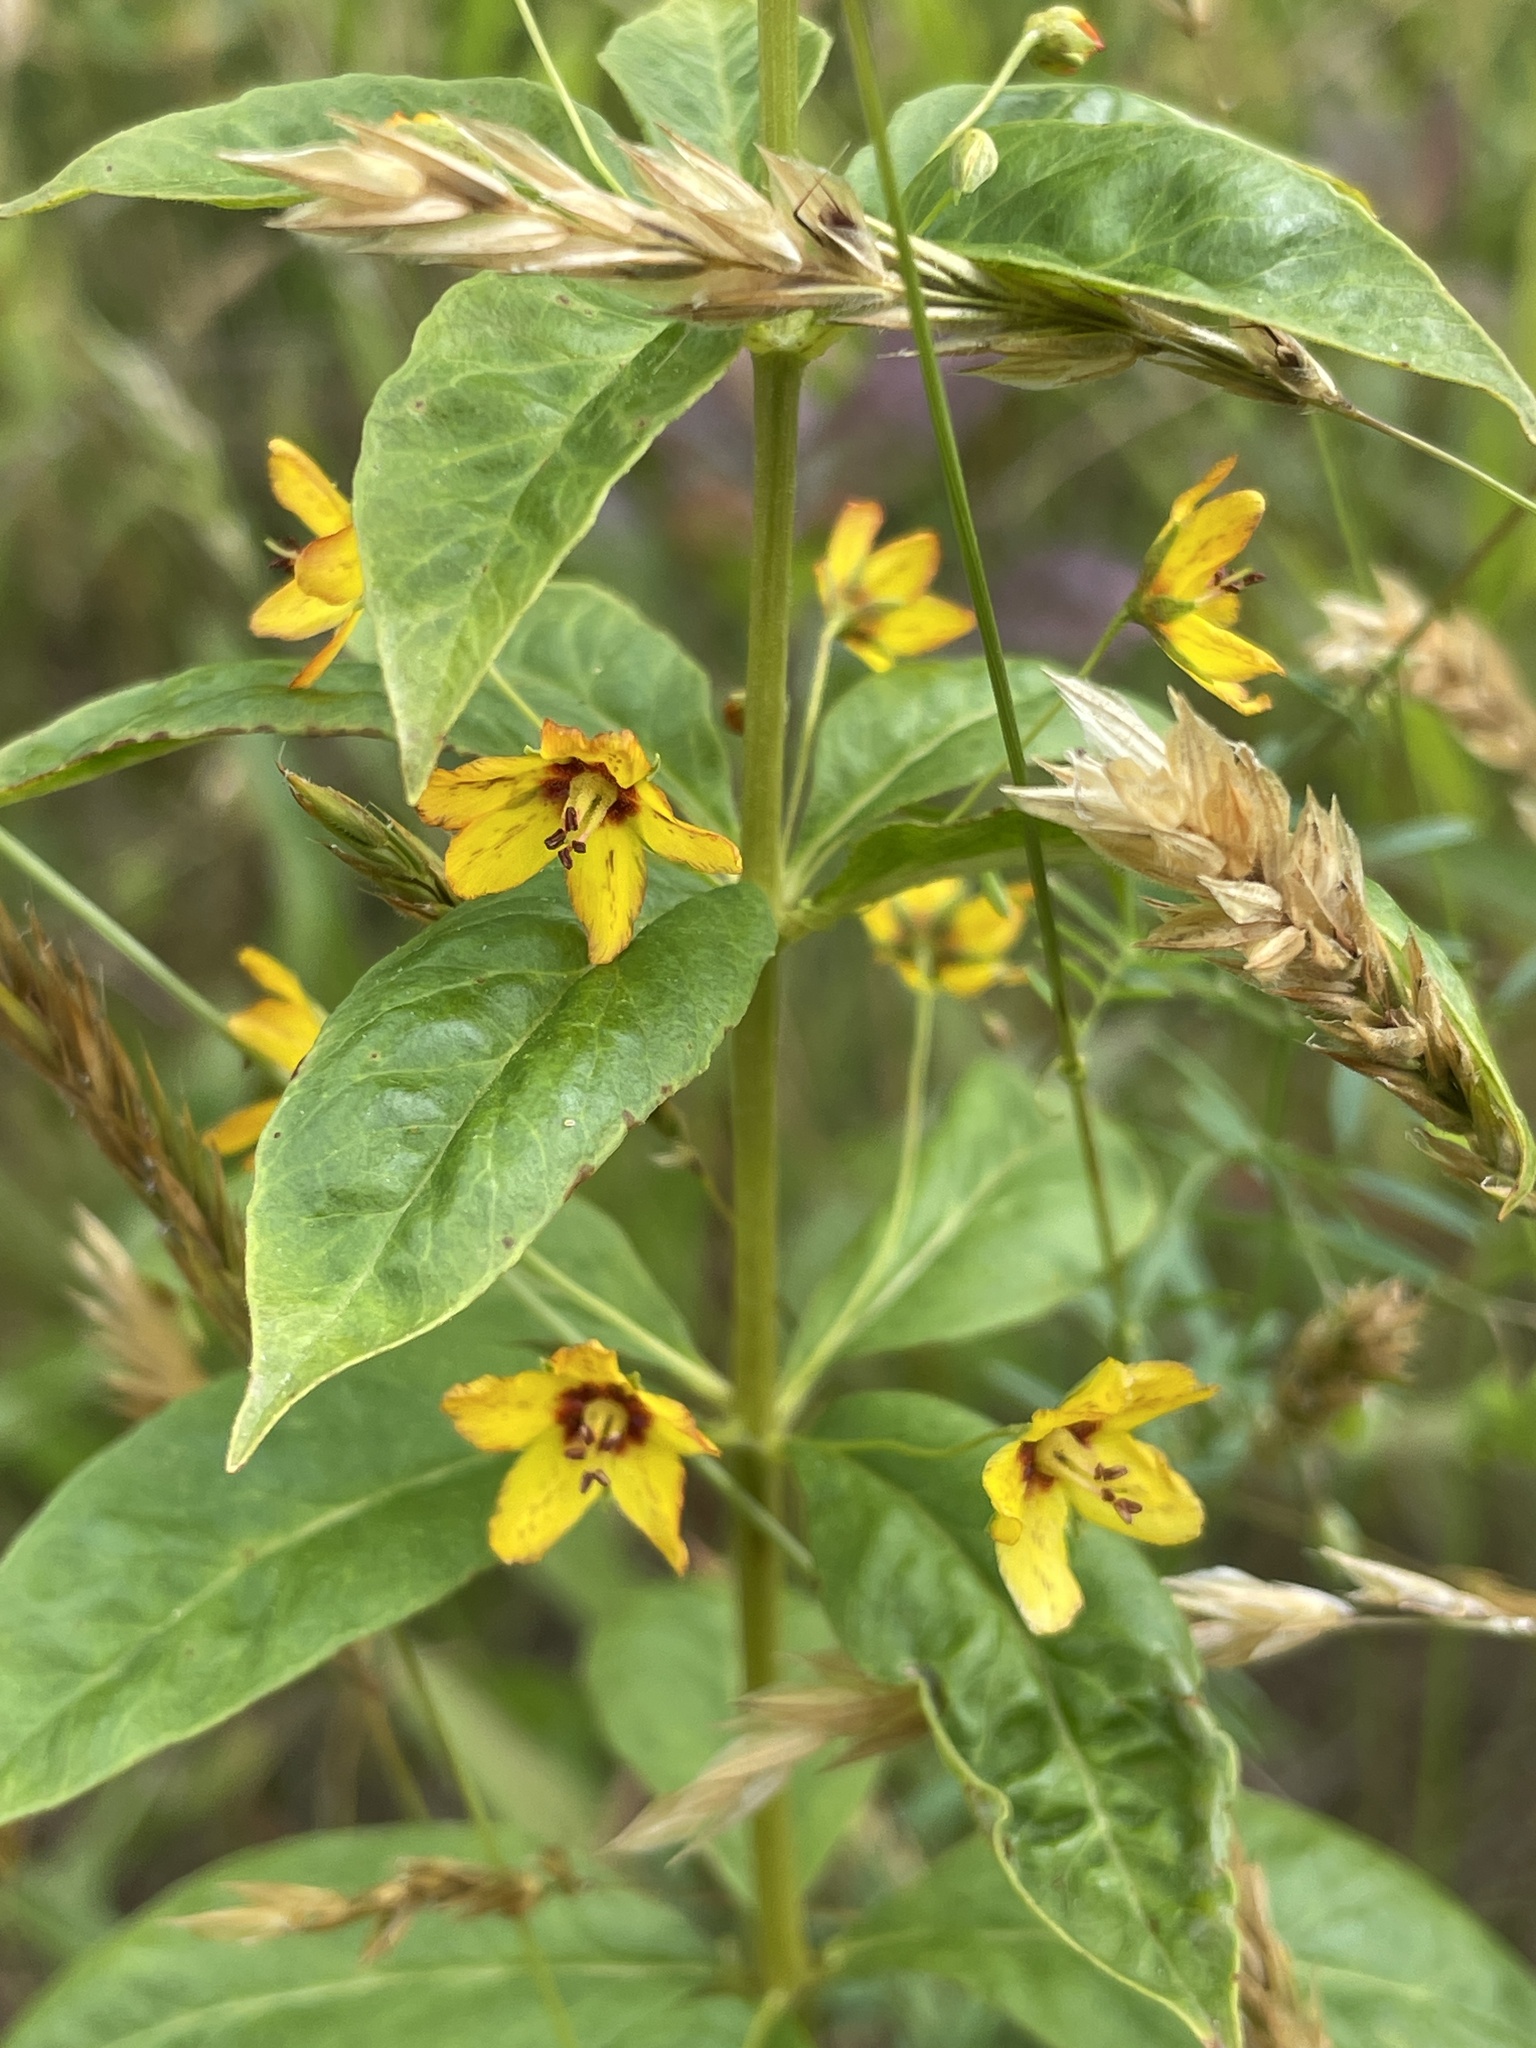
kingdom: Plantae
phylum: Tracheophyta
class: Magnoliopsida
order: Ericales
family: Primulaceae
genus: Lysimachia
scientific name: Lysimachia quadrifolia
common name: Whorled loosestrife
